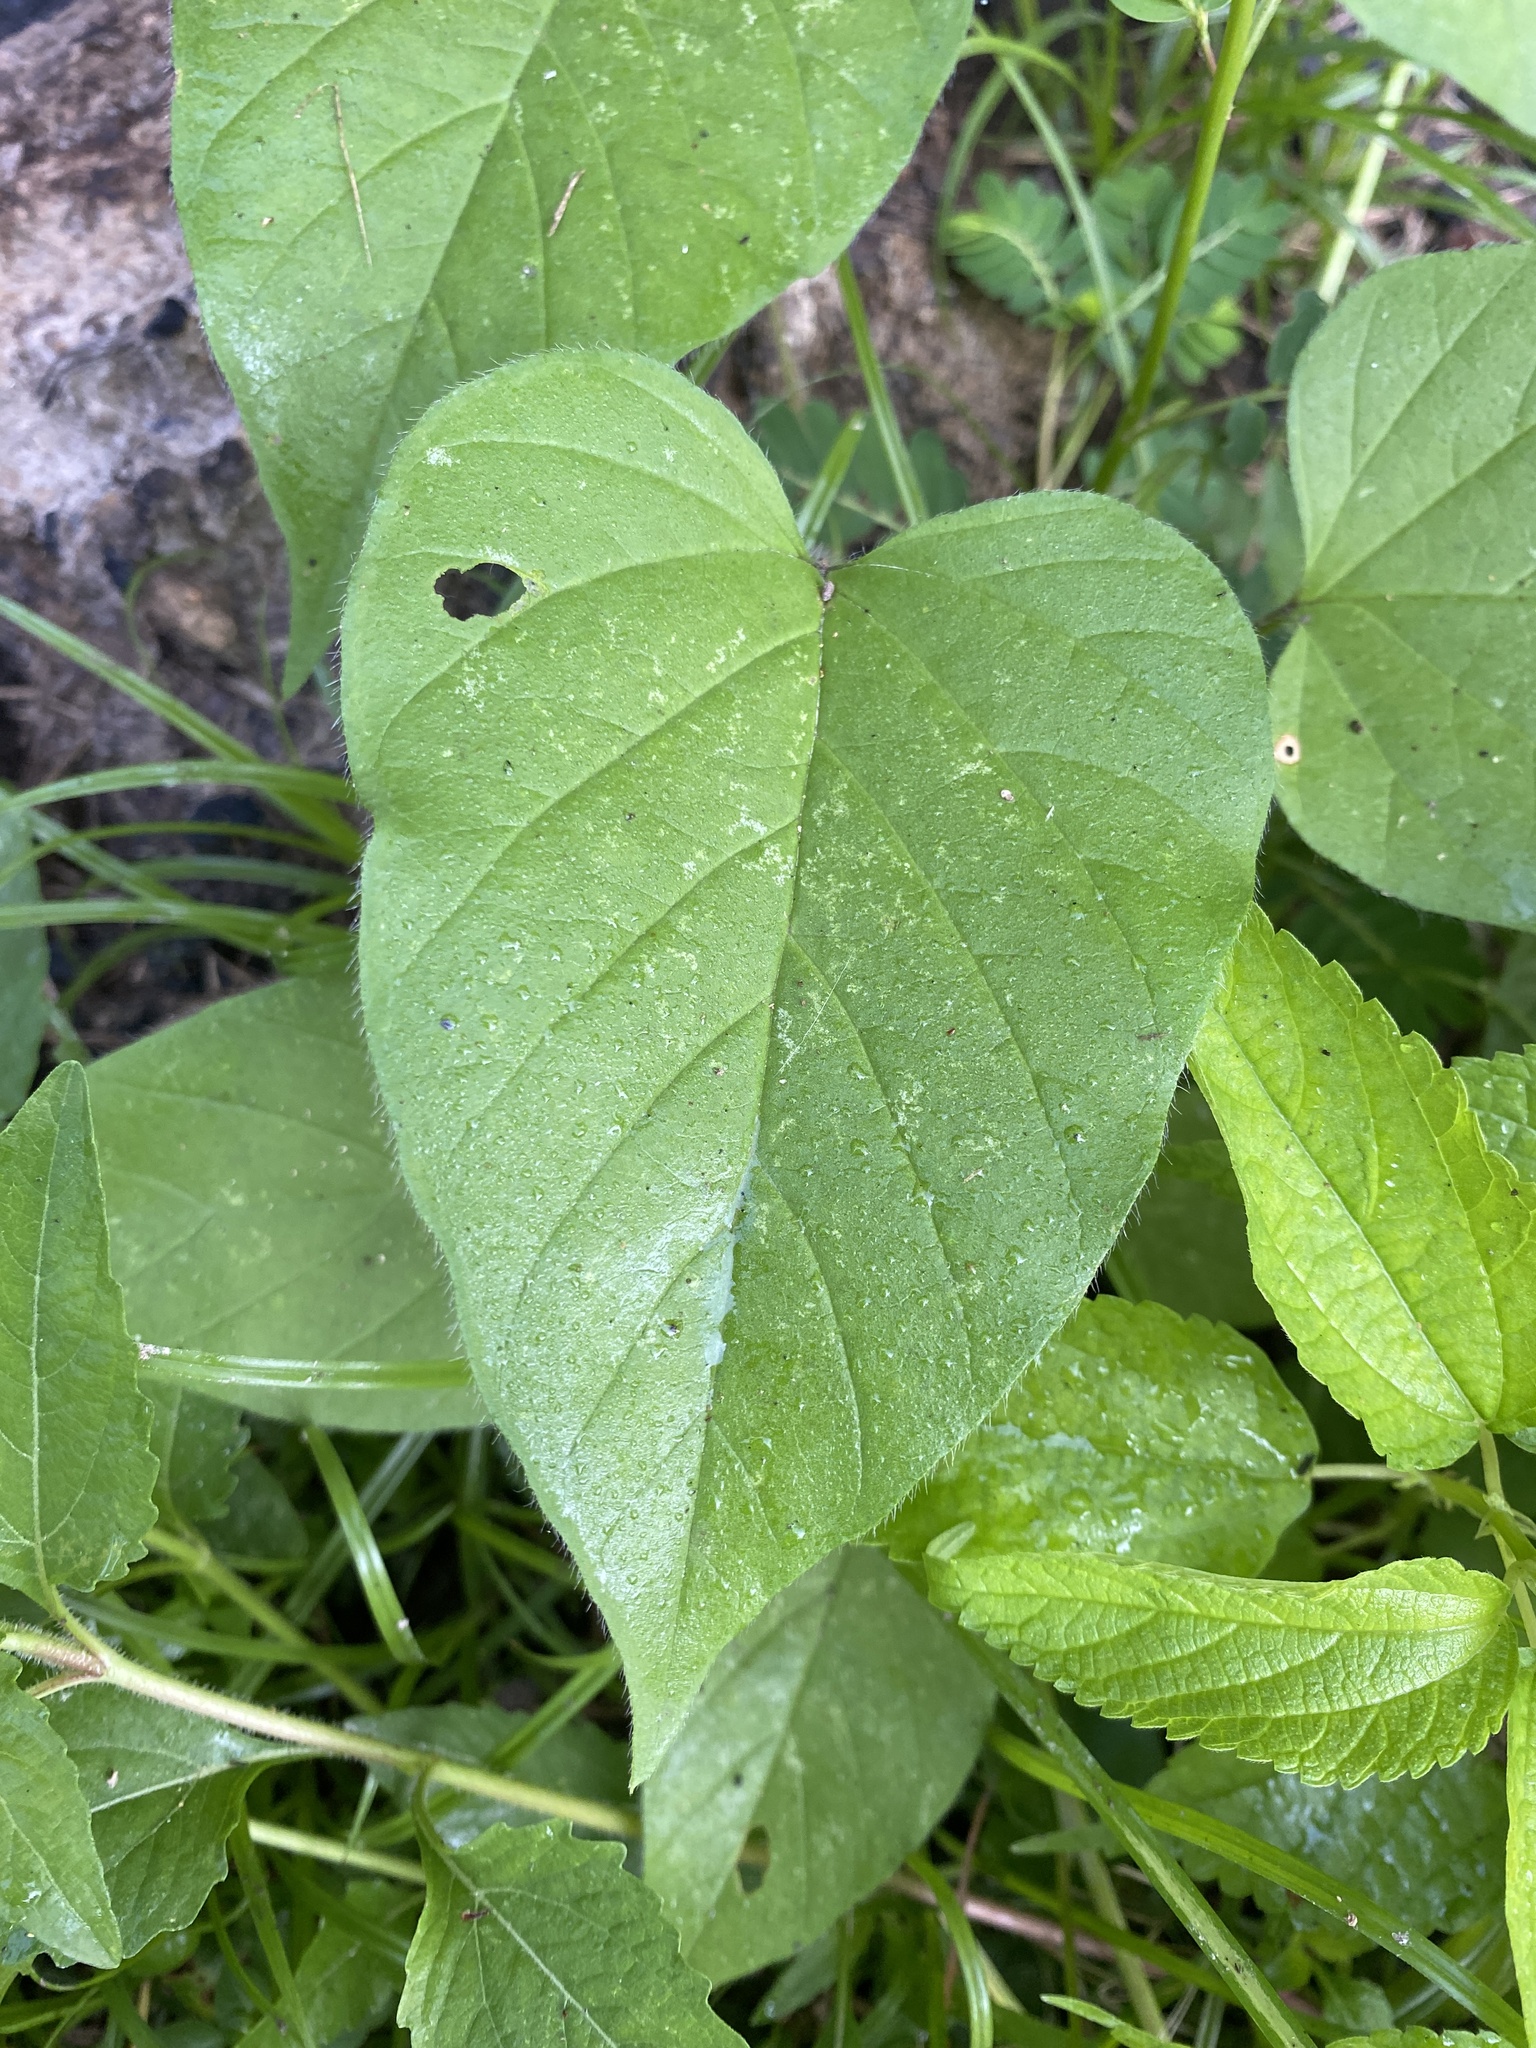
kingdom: Plantae
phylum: Tracheophyta
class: Magnoliopsida
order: Solanales
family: Convolvulaceae
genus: Jacquemontia
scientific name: Jacquemontia tamnifolia
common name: Hairy clustervine
